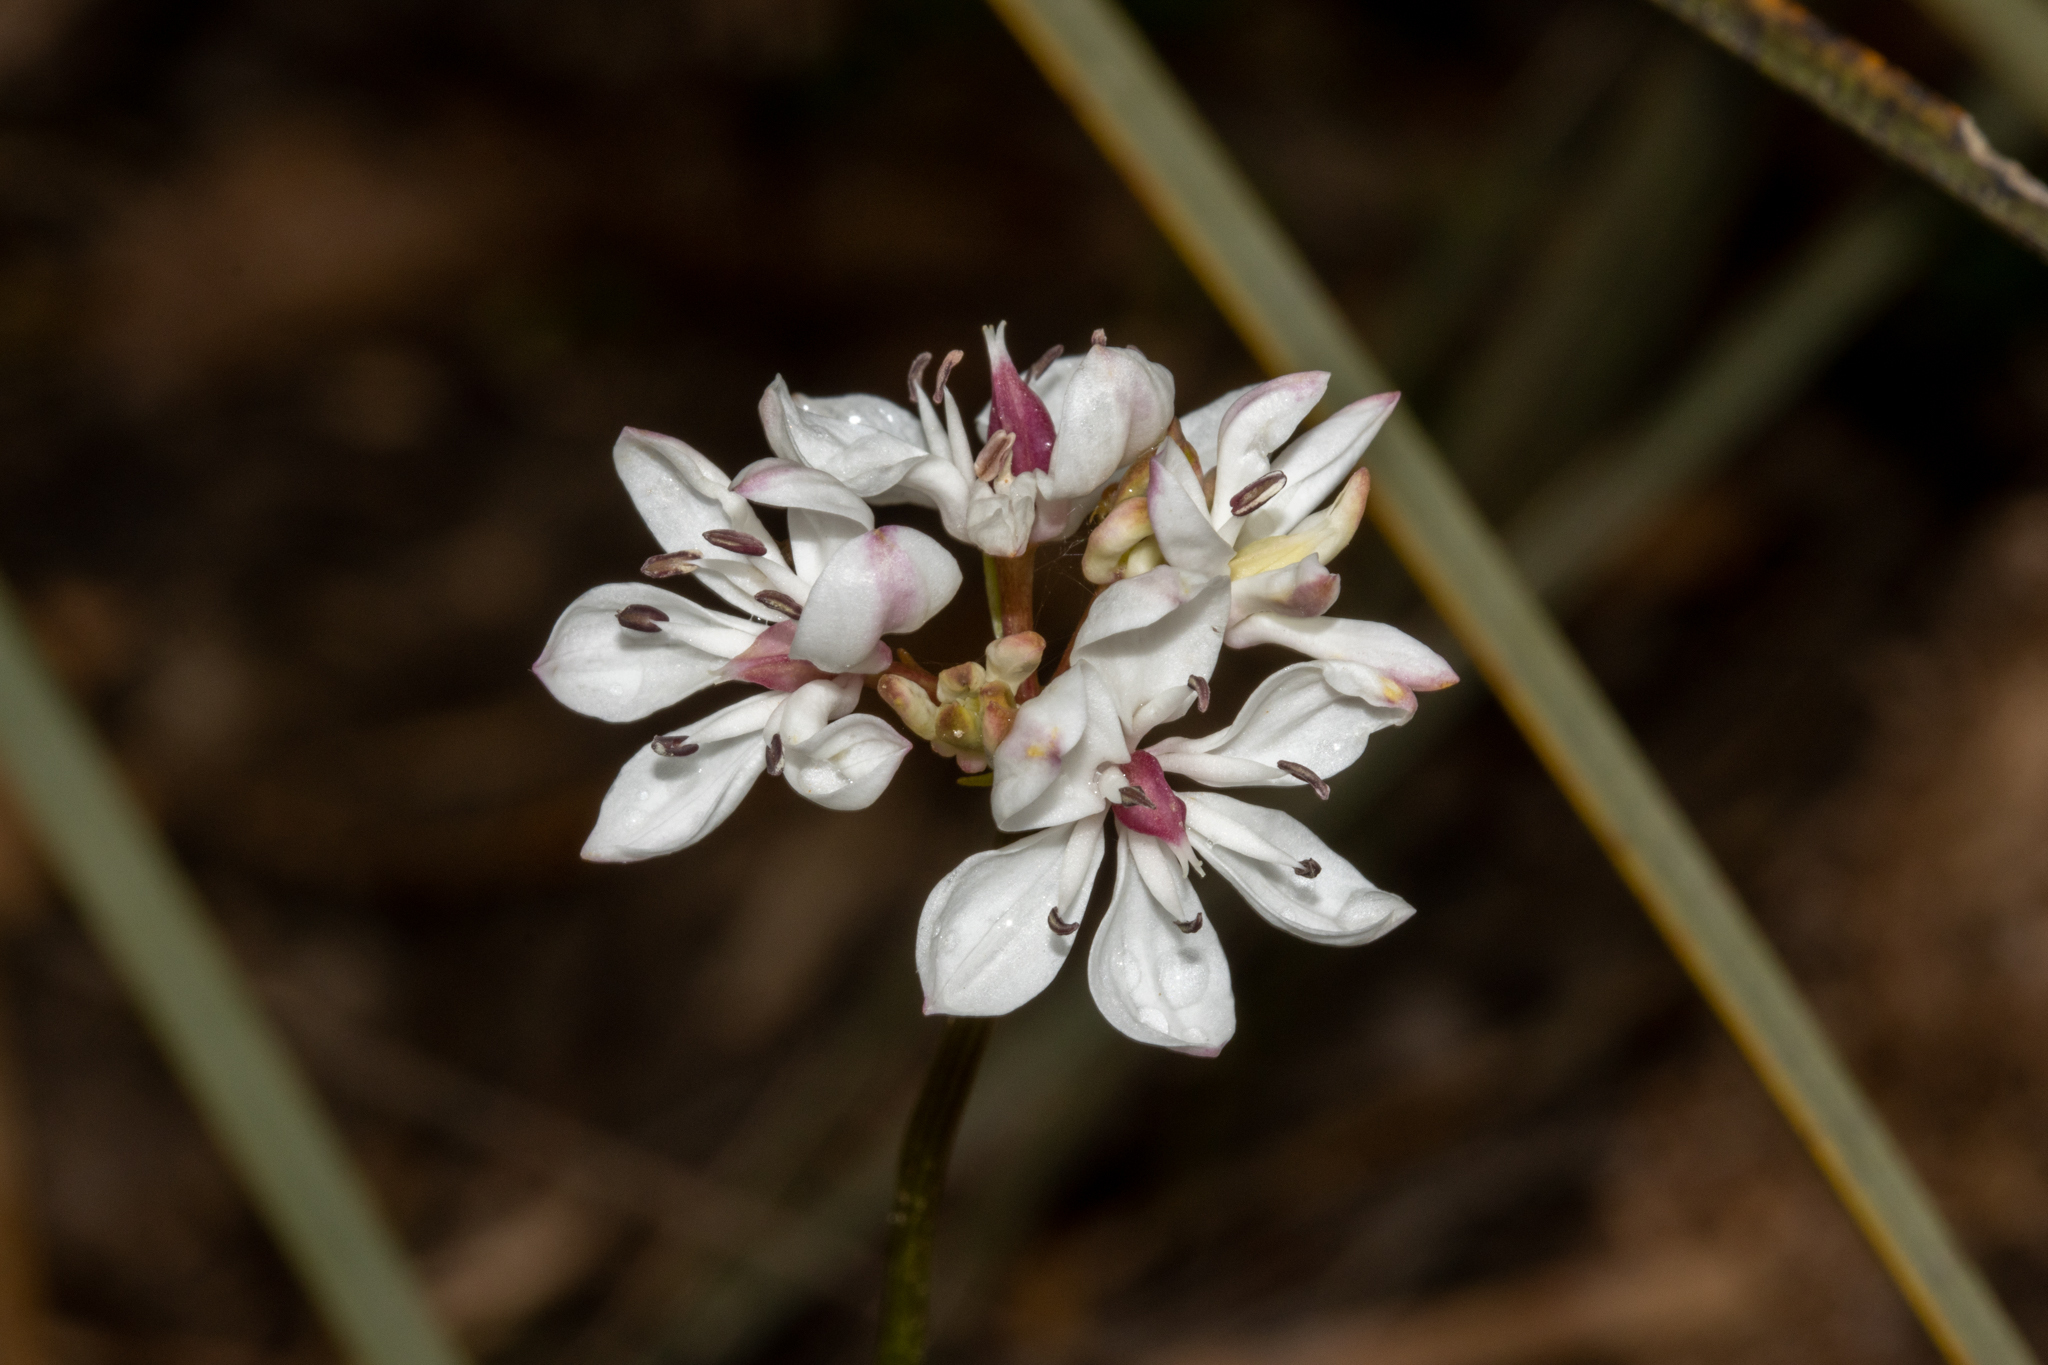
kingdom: Plantae
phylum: Tracheophyta
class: Liliopsida
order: Liliales
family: Colchicaceae
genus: Burchardia
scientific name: Burchardia umbellata
